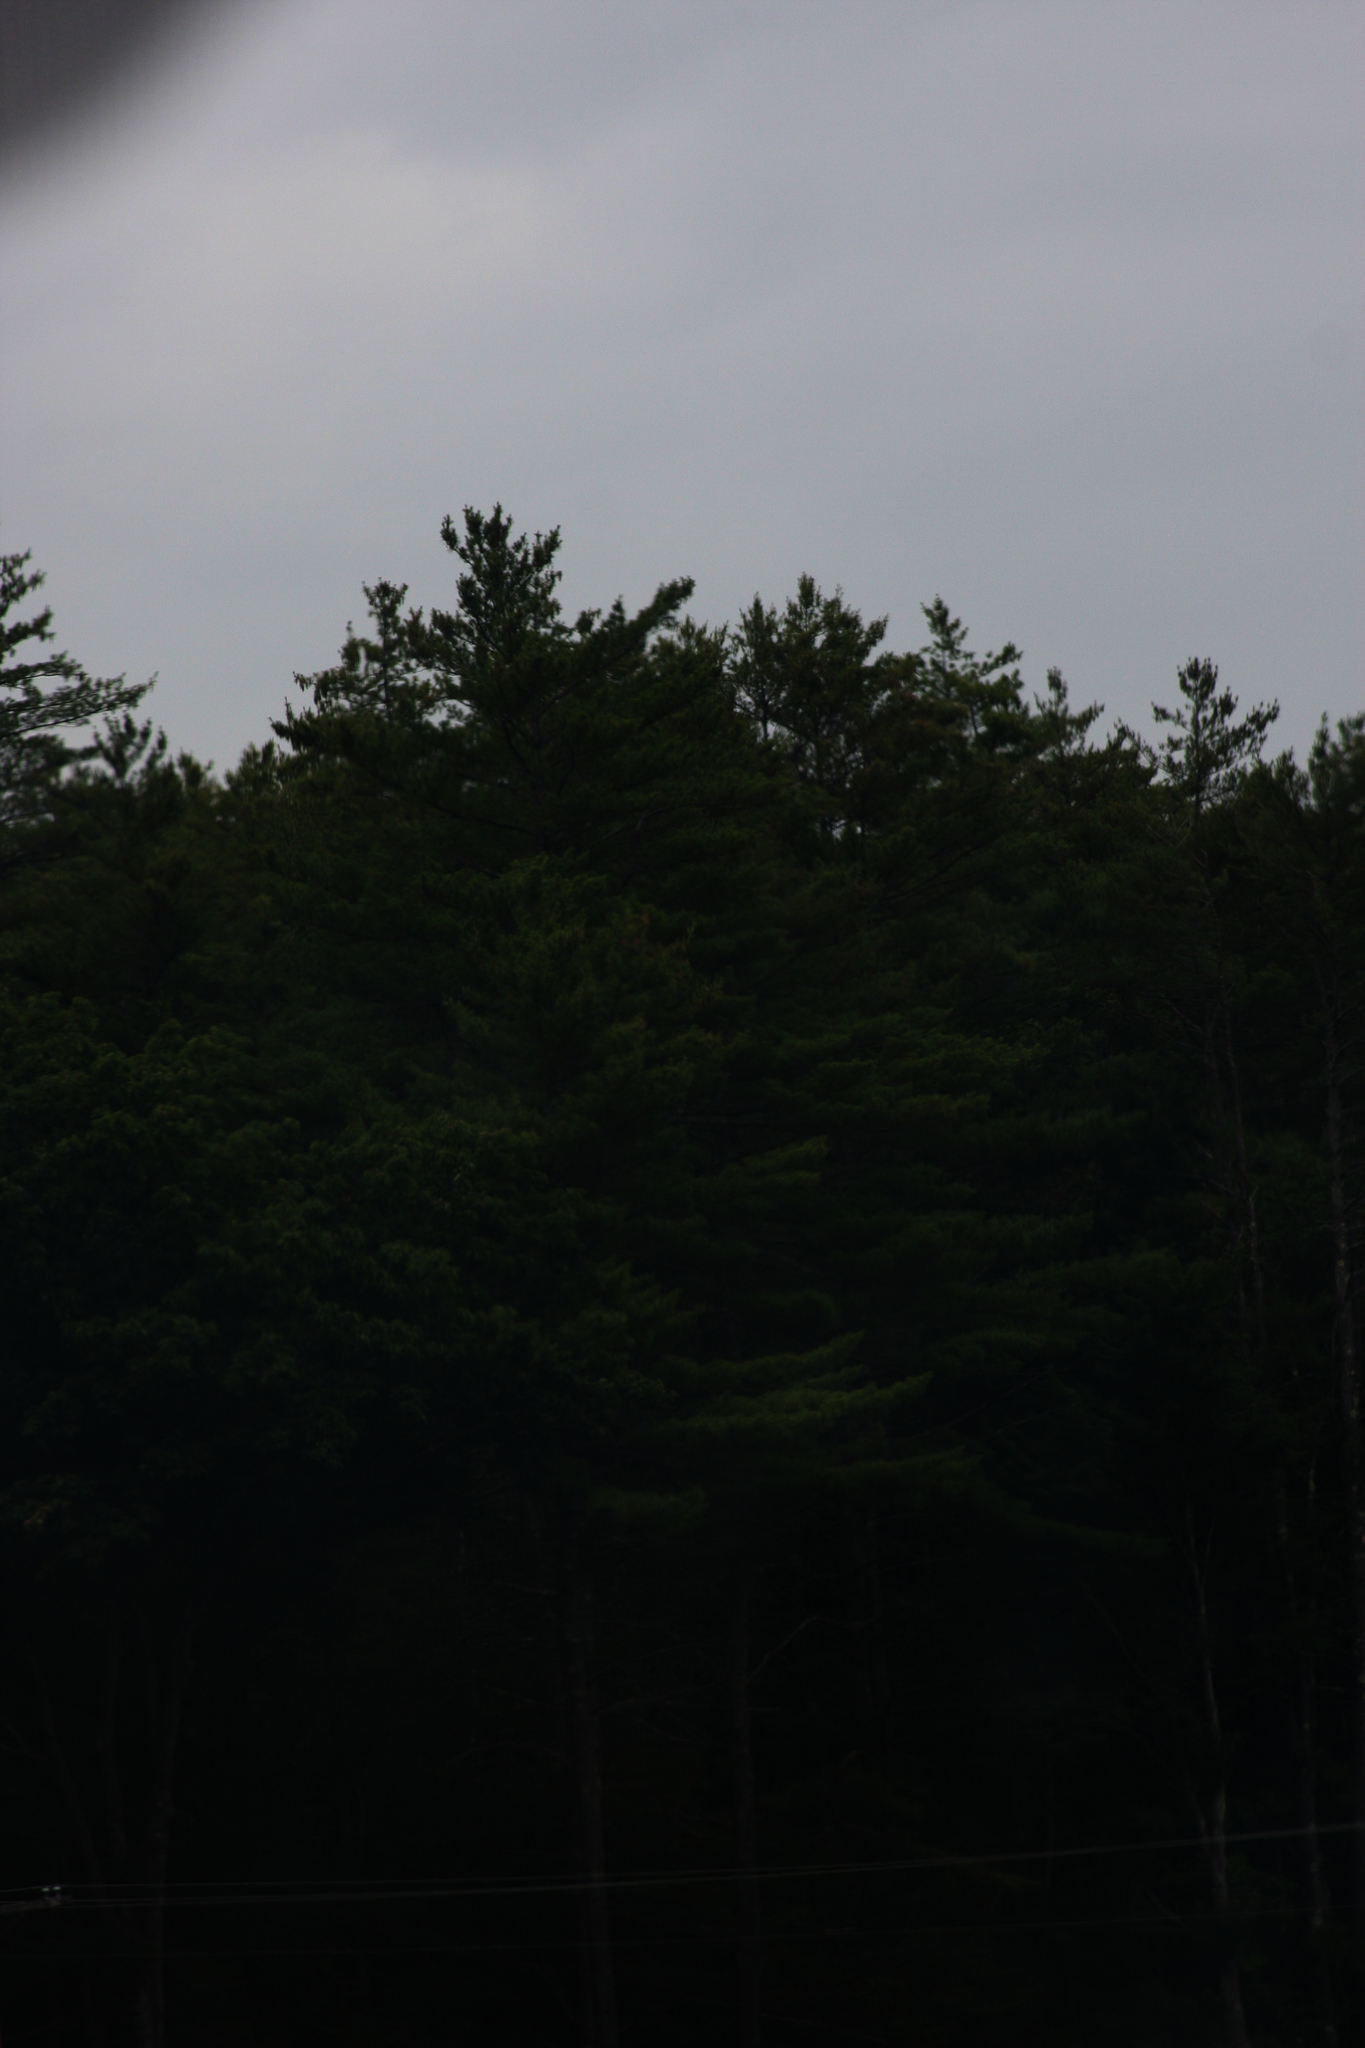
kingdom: Plantae
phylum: Tracheophyta
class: Pinopsida
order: Pinales
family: Pinaceae
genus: Pinus
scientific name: Pinus strobus
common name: Weymouth pine
